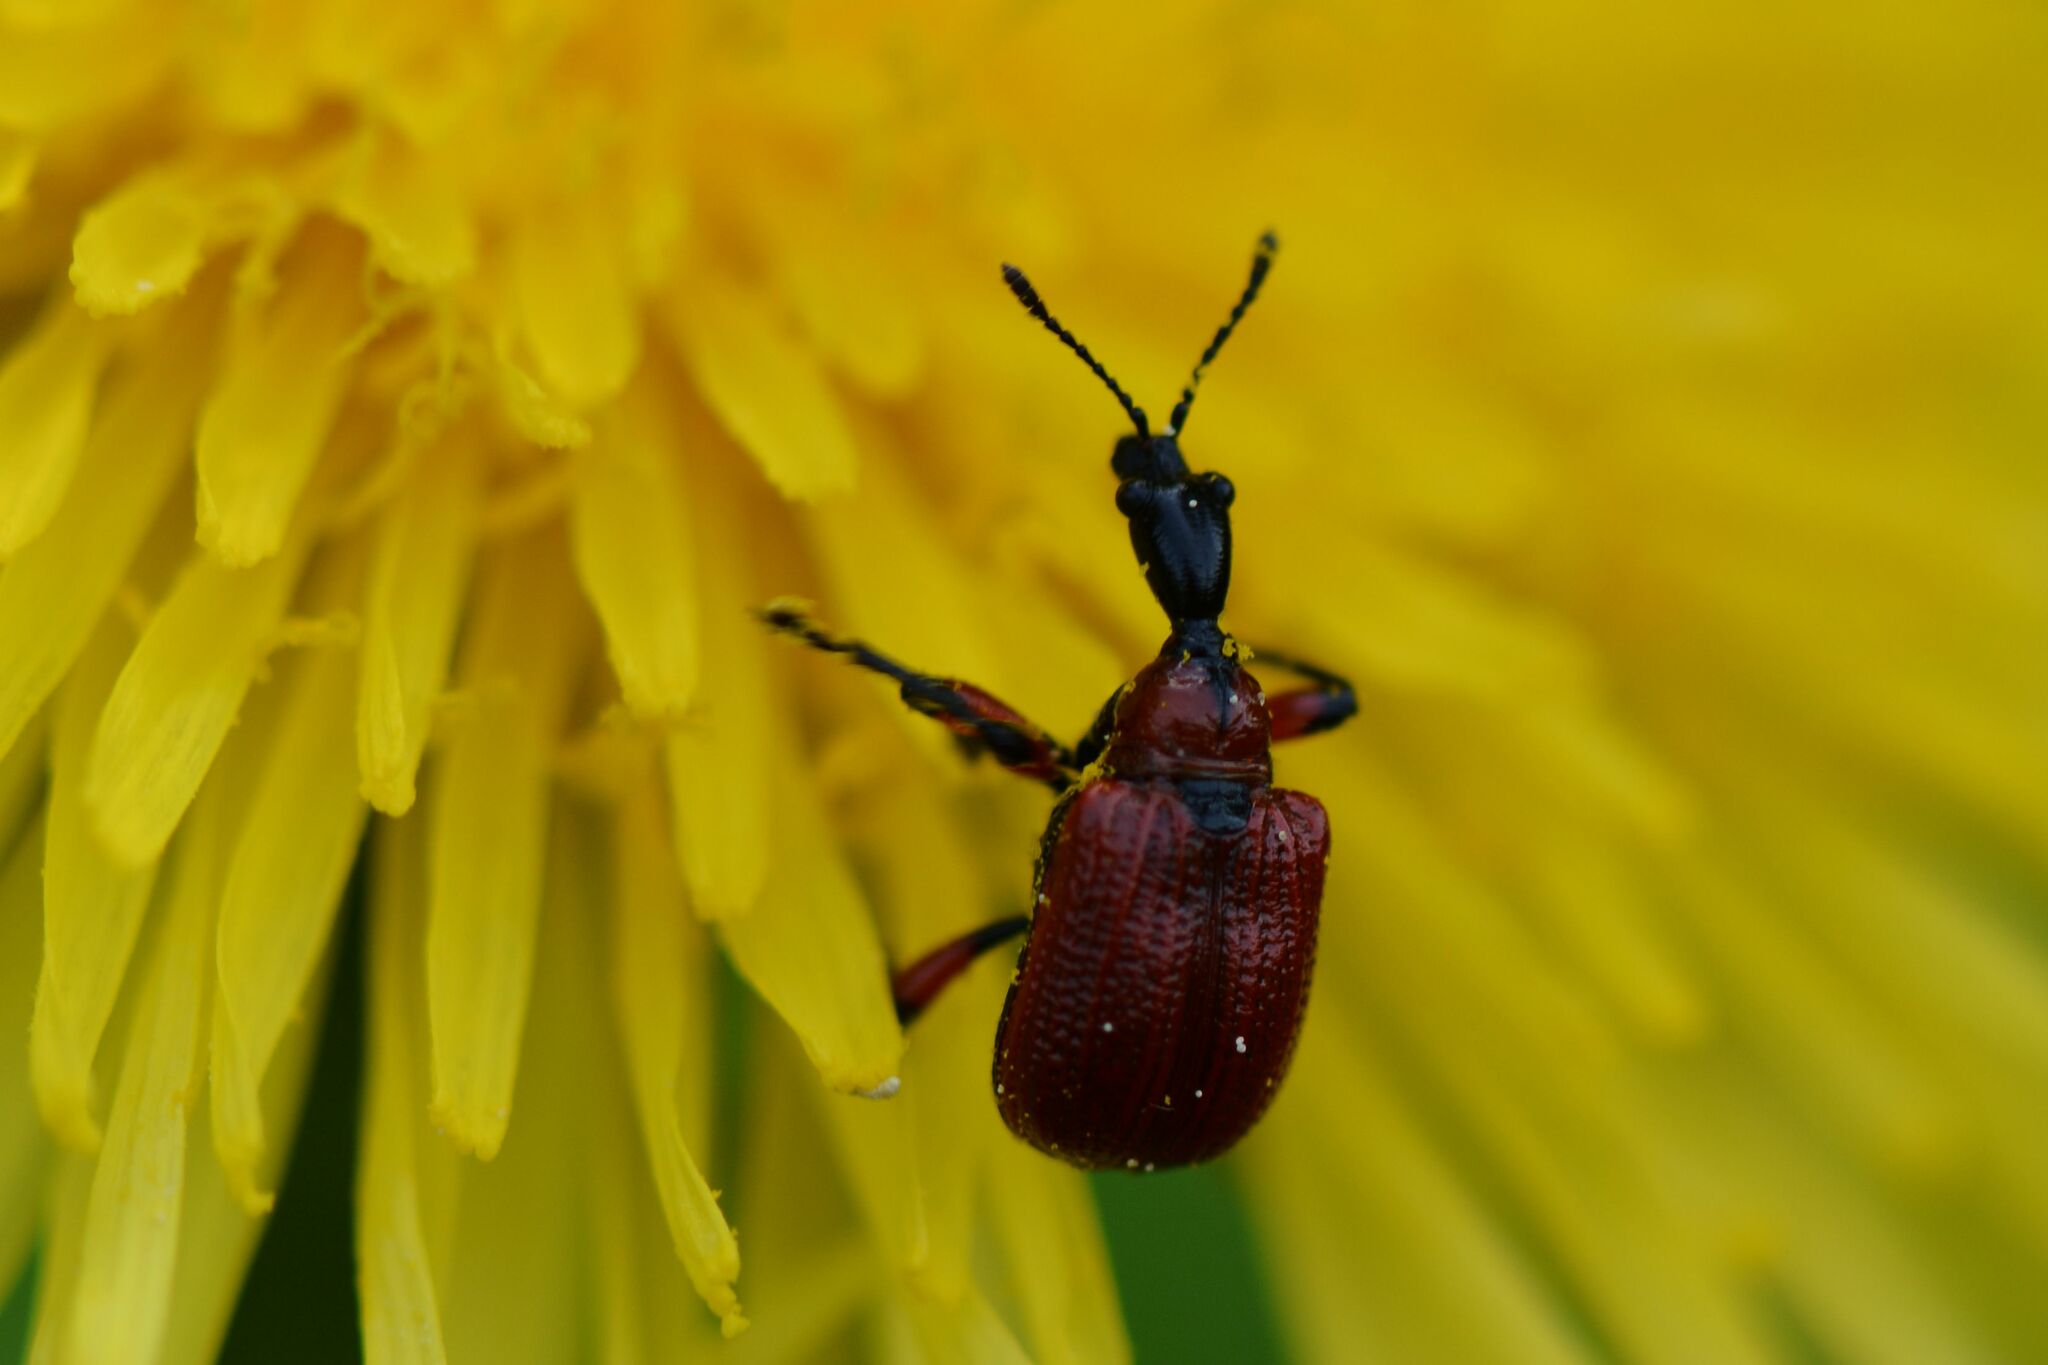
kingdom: Animalia
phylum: Arthropoda
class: Insecta
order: Coleoptera
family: Attelabidae
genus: Apoderus
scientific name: Apoderus coryli
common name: Hazel leaf roller
